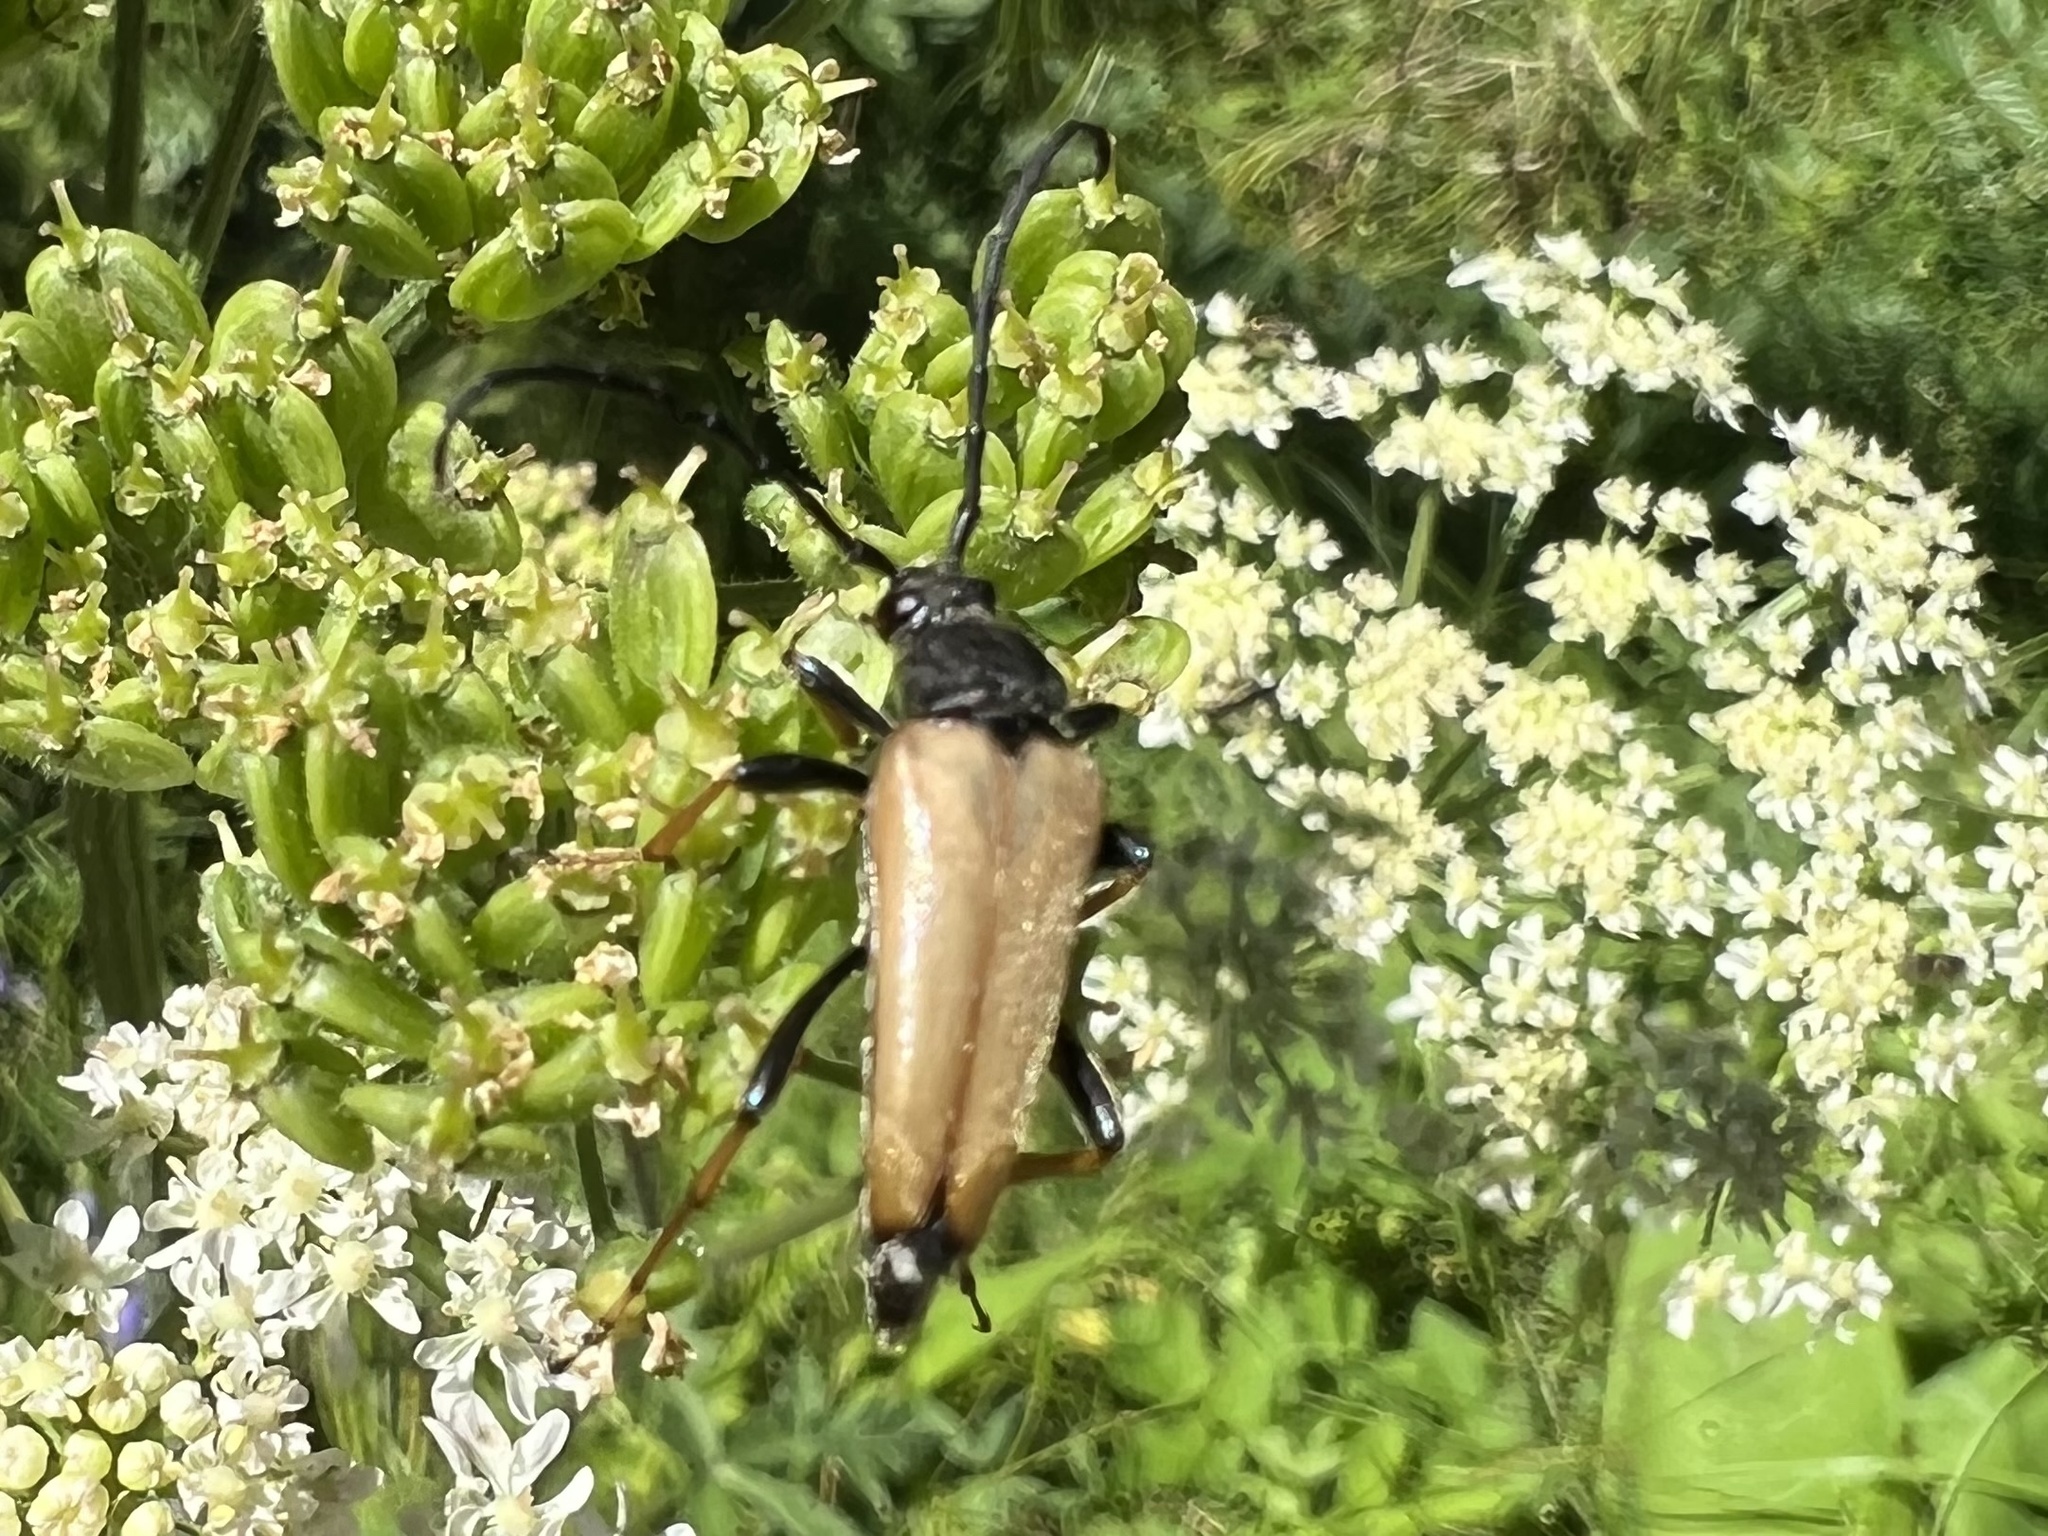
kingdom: Animalia
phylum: Arthropoda
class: Insecta
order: Coleoptera
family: Cerambycidae
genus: Stictoleptura
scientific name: Stictoleptura rubra
